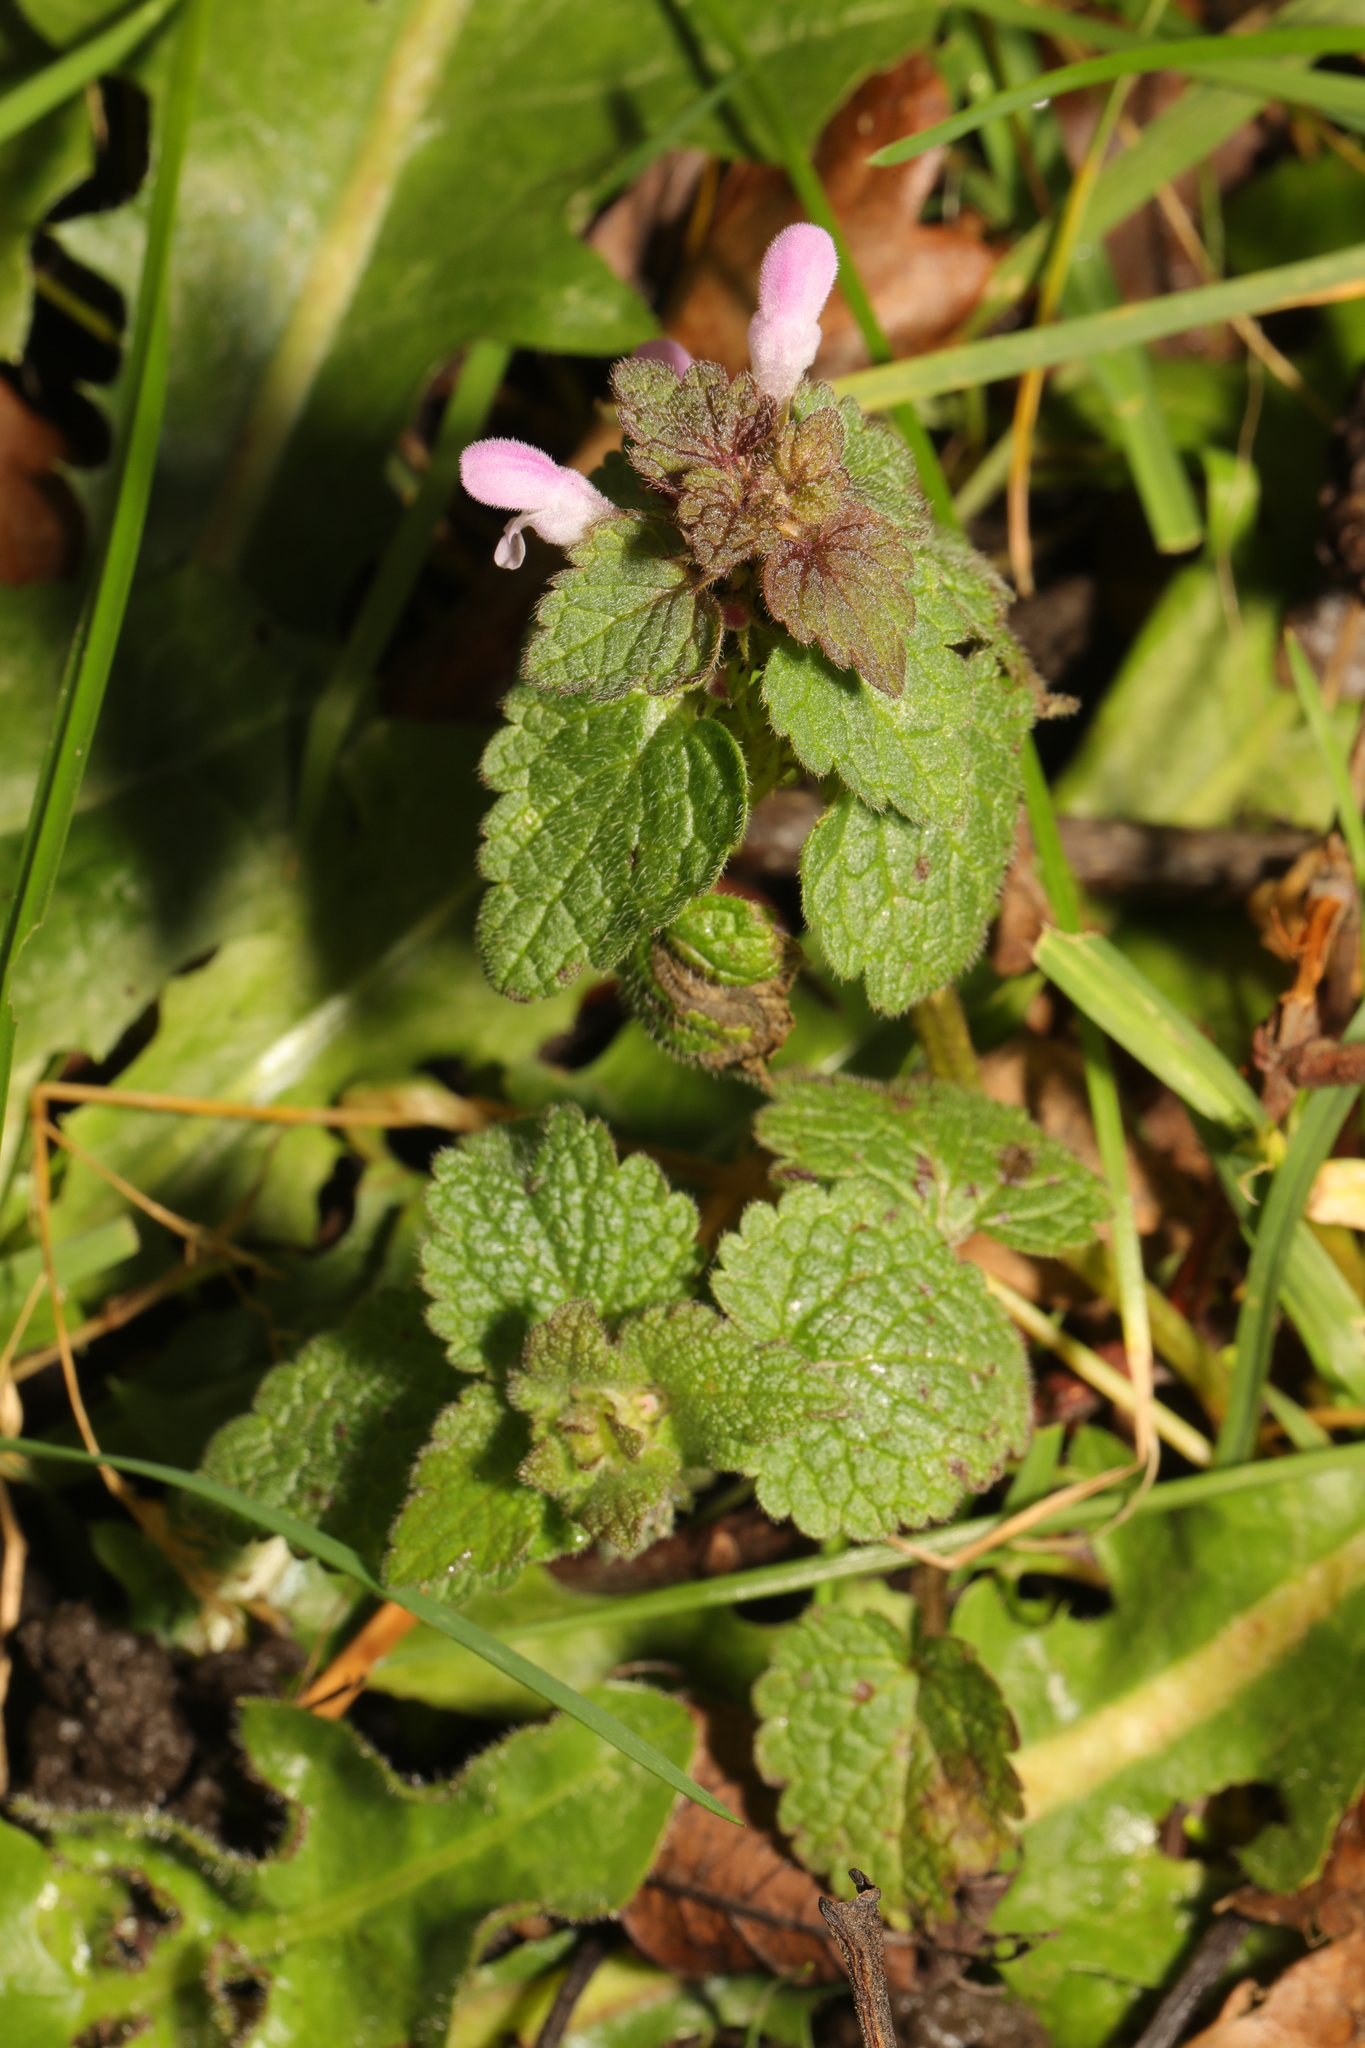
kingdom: Plantae
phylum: Tracheophyta
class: Magnoliopsida
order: Lamiales
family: Lamiaceae
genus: Lamium
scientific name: Lamium purpureum
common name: Red dead-nettle
